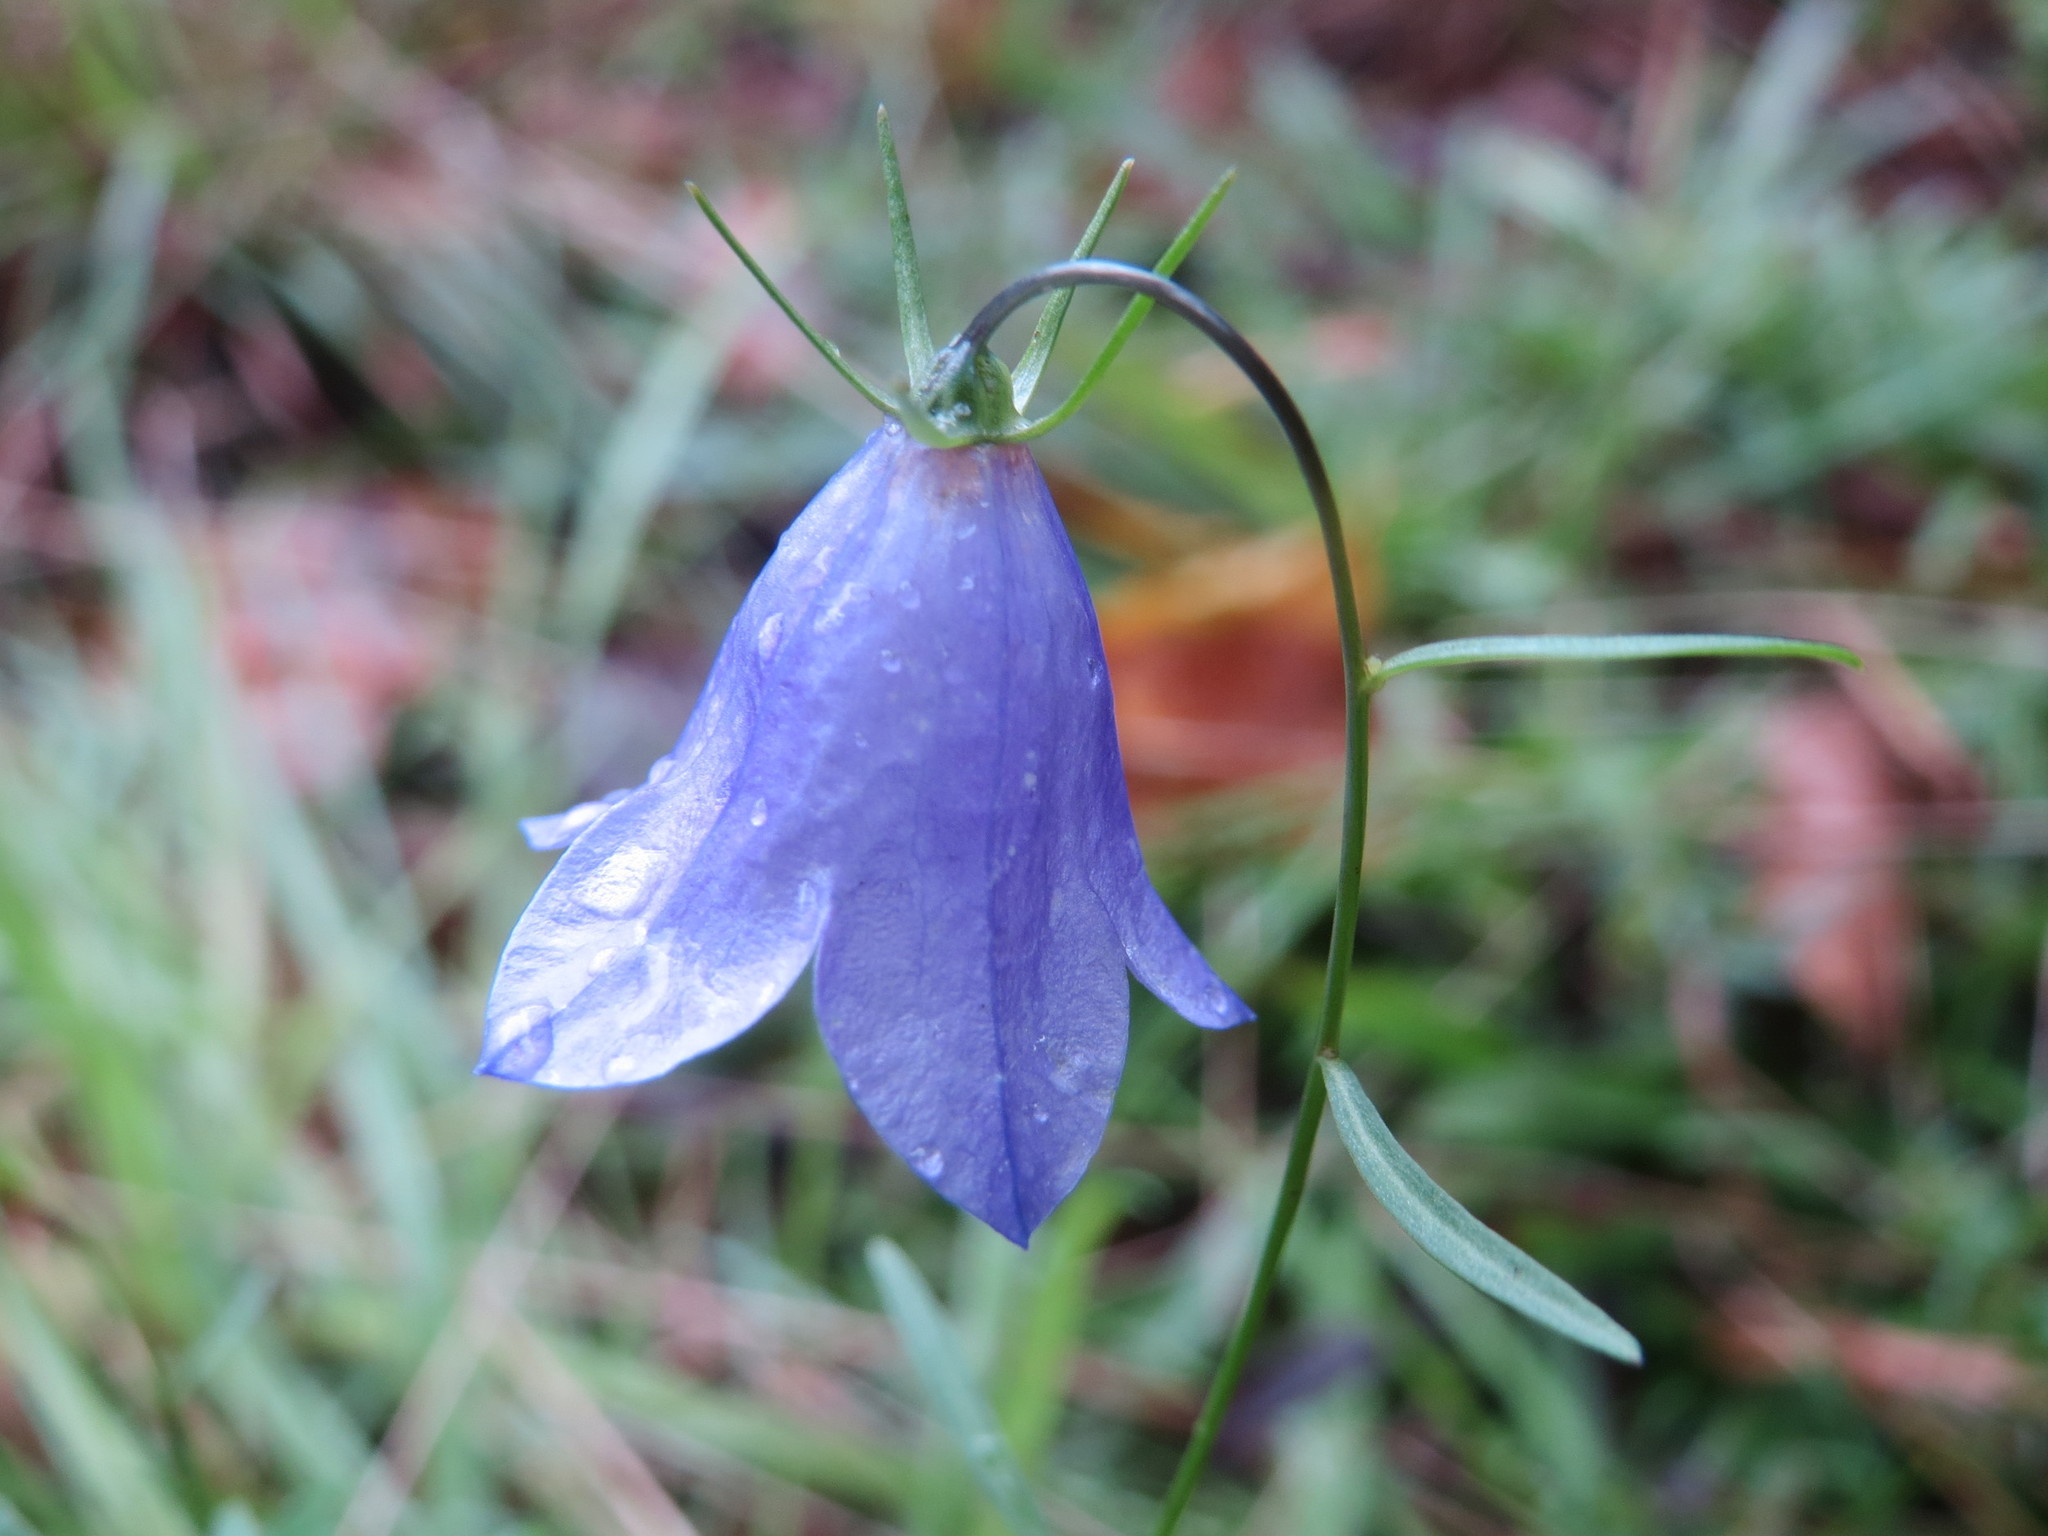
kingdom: Plantae
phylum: Tracheophyta
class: Magnoliopsida
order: Asterales
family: Campanulaceae
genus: Campanula
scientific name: Campanula rotundifolia
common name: Harebell
